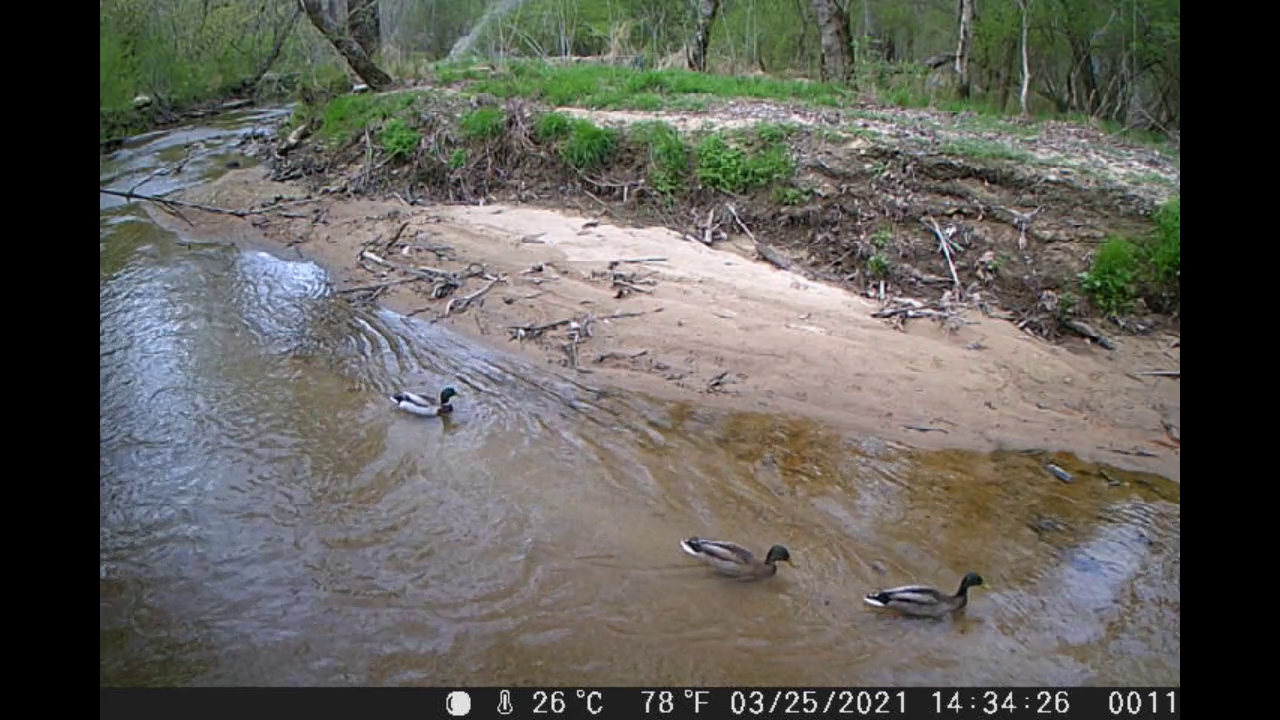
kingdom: Animalia
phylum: Chordata
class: Aves
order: Anseriformes
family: Anatidae
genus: Anas
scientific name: Anas platyrhynchos
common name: Mallard
